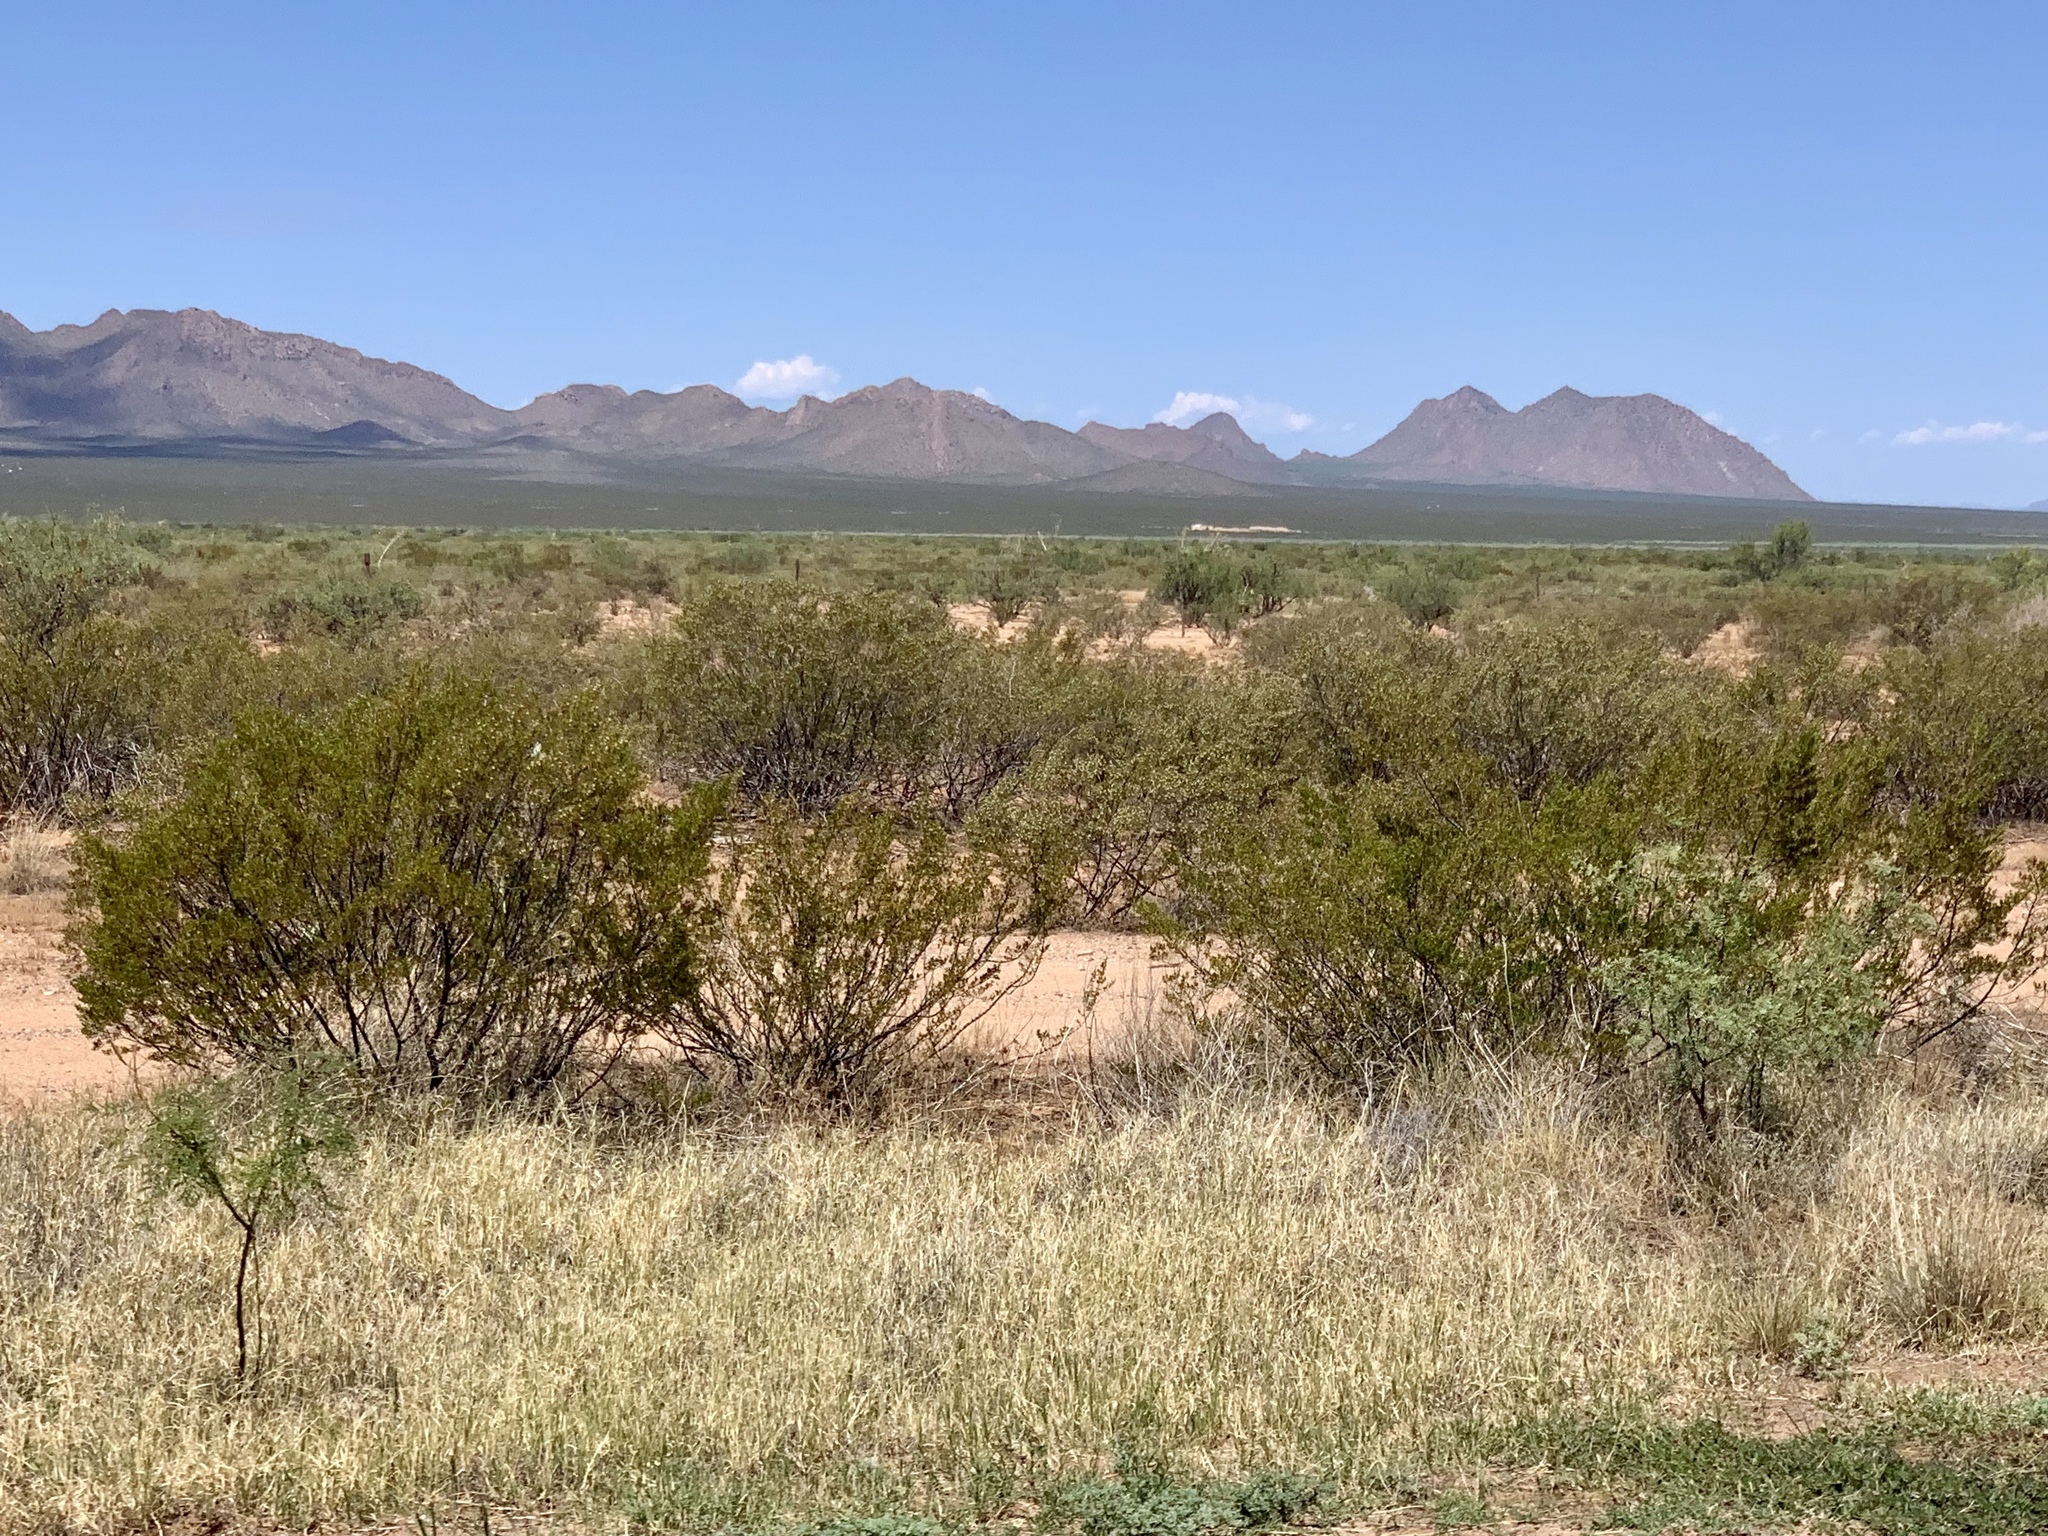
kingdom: Plantae
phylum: Tracheophyta
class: Magnoliopsida
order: Zygophyllales
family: Zygophyllaceae
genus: Larrea
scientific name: Larrea tridentata
